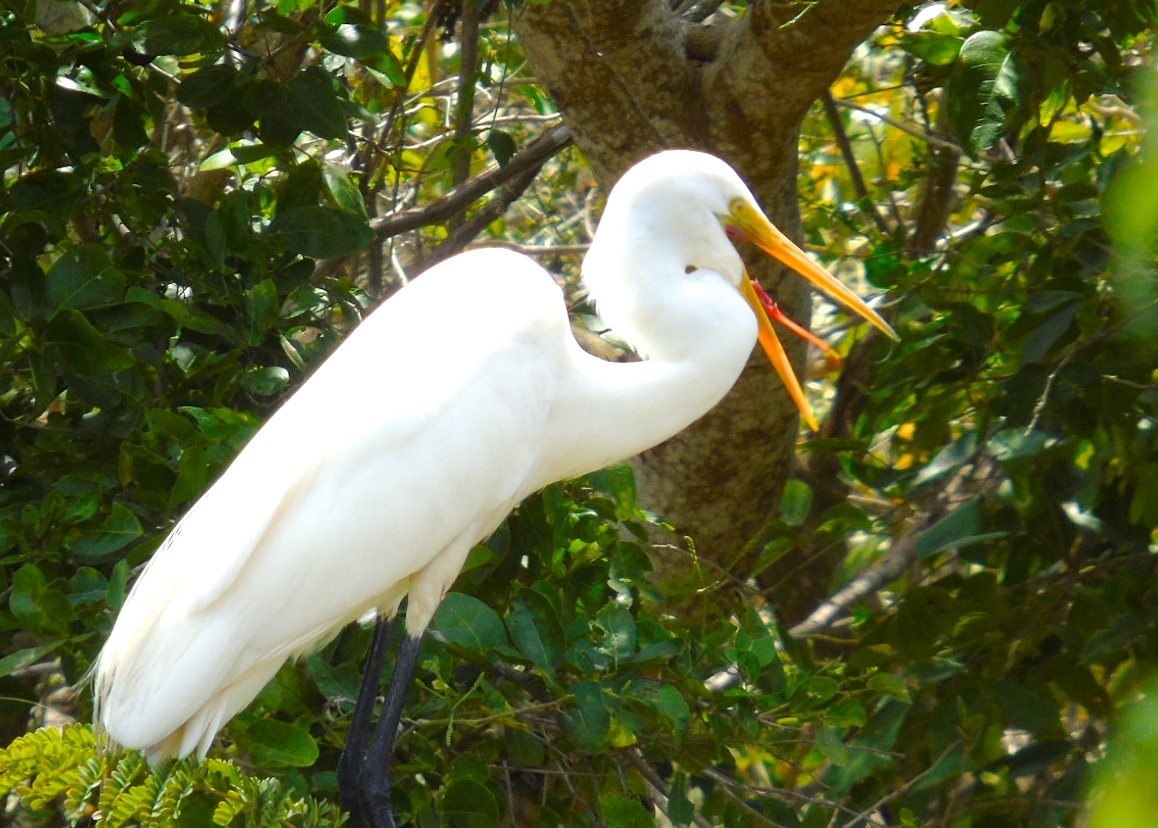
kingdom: Animalia
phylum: Chordata
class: Aves
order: Pelecaniformes
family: Ardeidae
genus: Ardea
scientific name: Ardea alba
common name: Great egret
